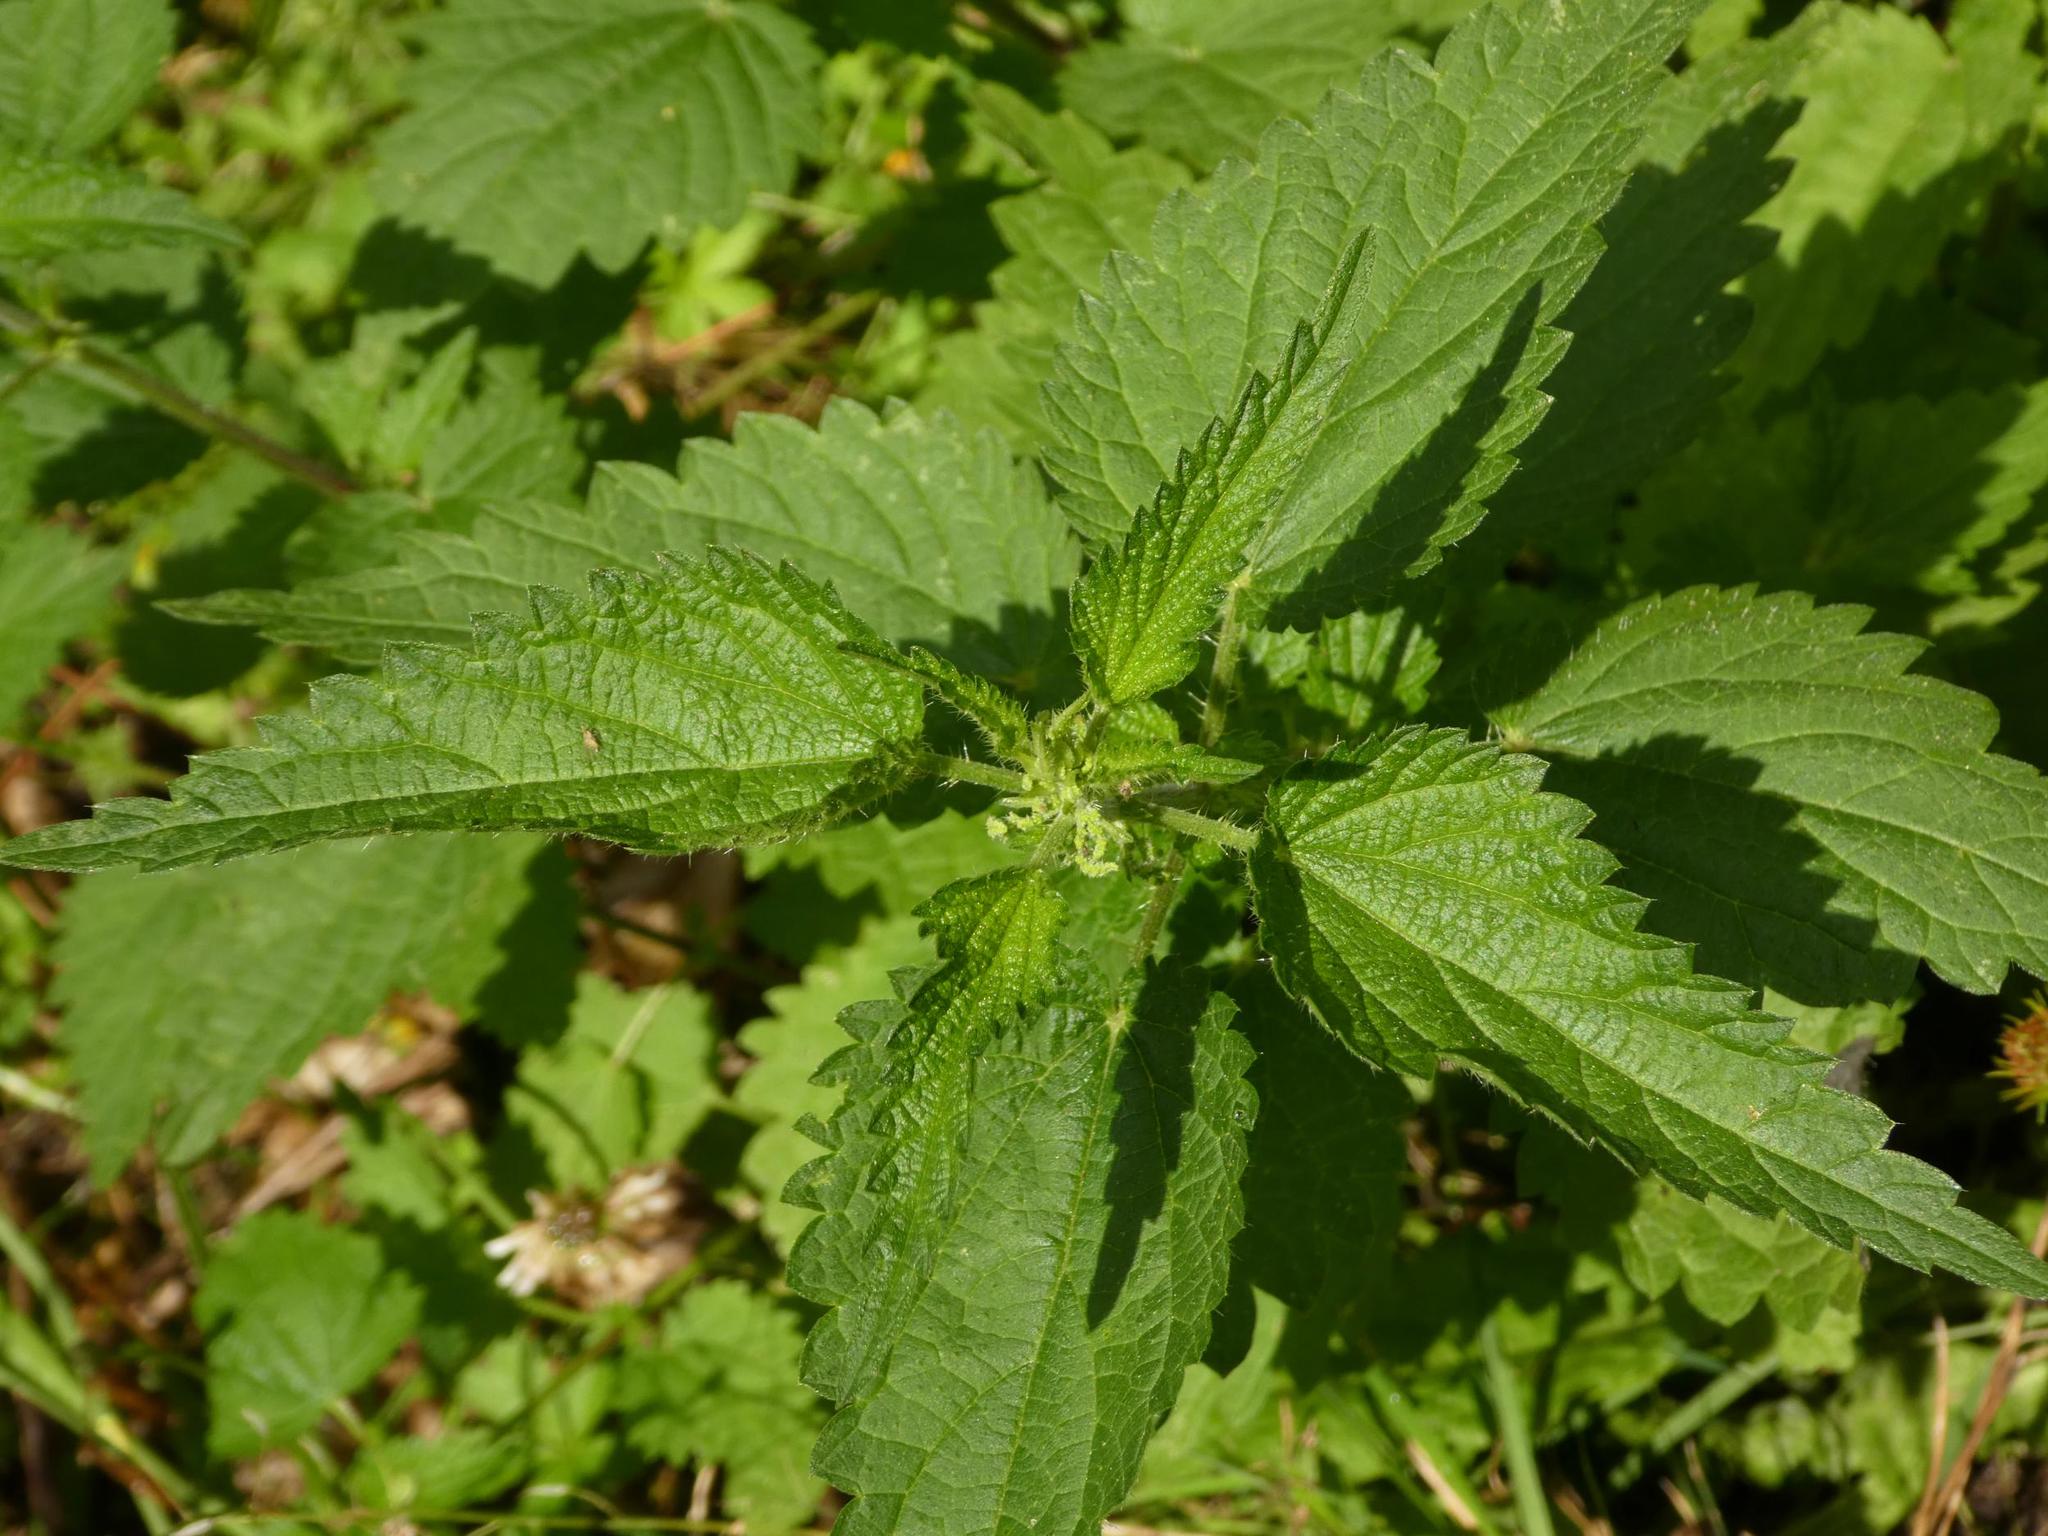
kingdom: Plantae
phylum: Tracheophyta
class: Magnoliopsida
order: Rosales
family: Urticaceae
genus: Urtica
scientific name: Urtica dioica
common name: Common nettle
